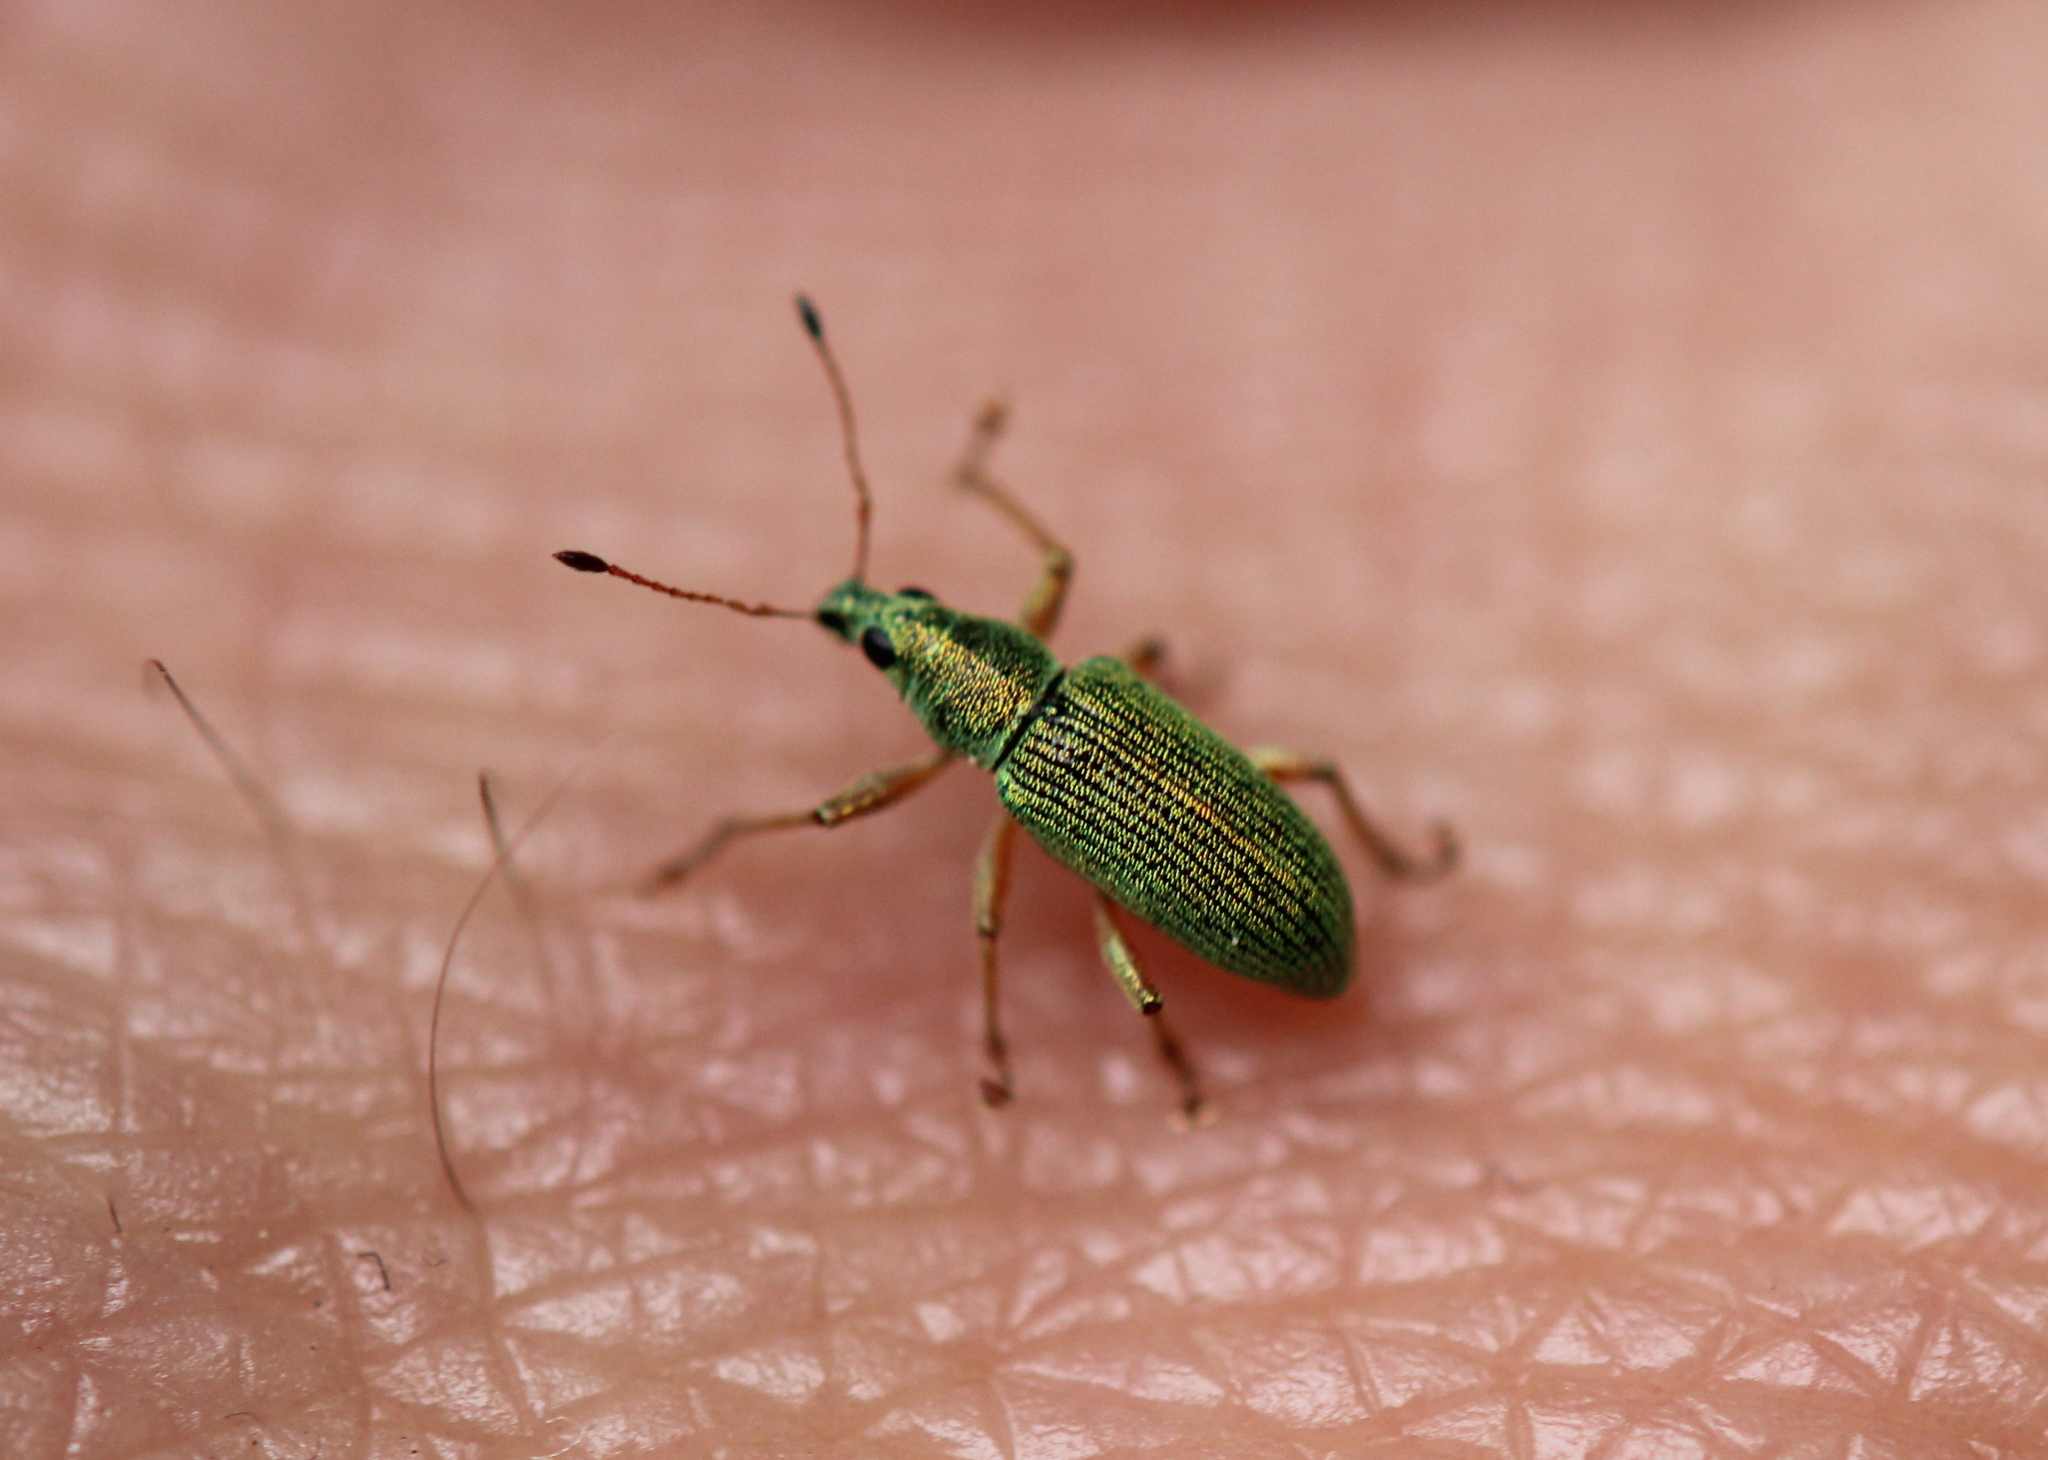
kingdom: Animalia
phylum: Arthropoda
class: Insecta
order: Coleoptera
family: Curculionidae
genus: Polydrusus
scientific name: Polydrusus formosus
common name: Weevil
